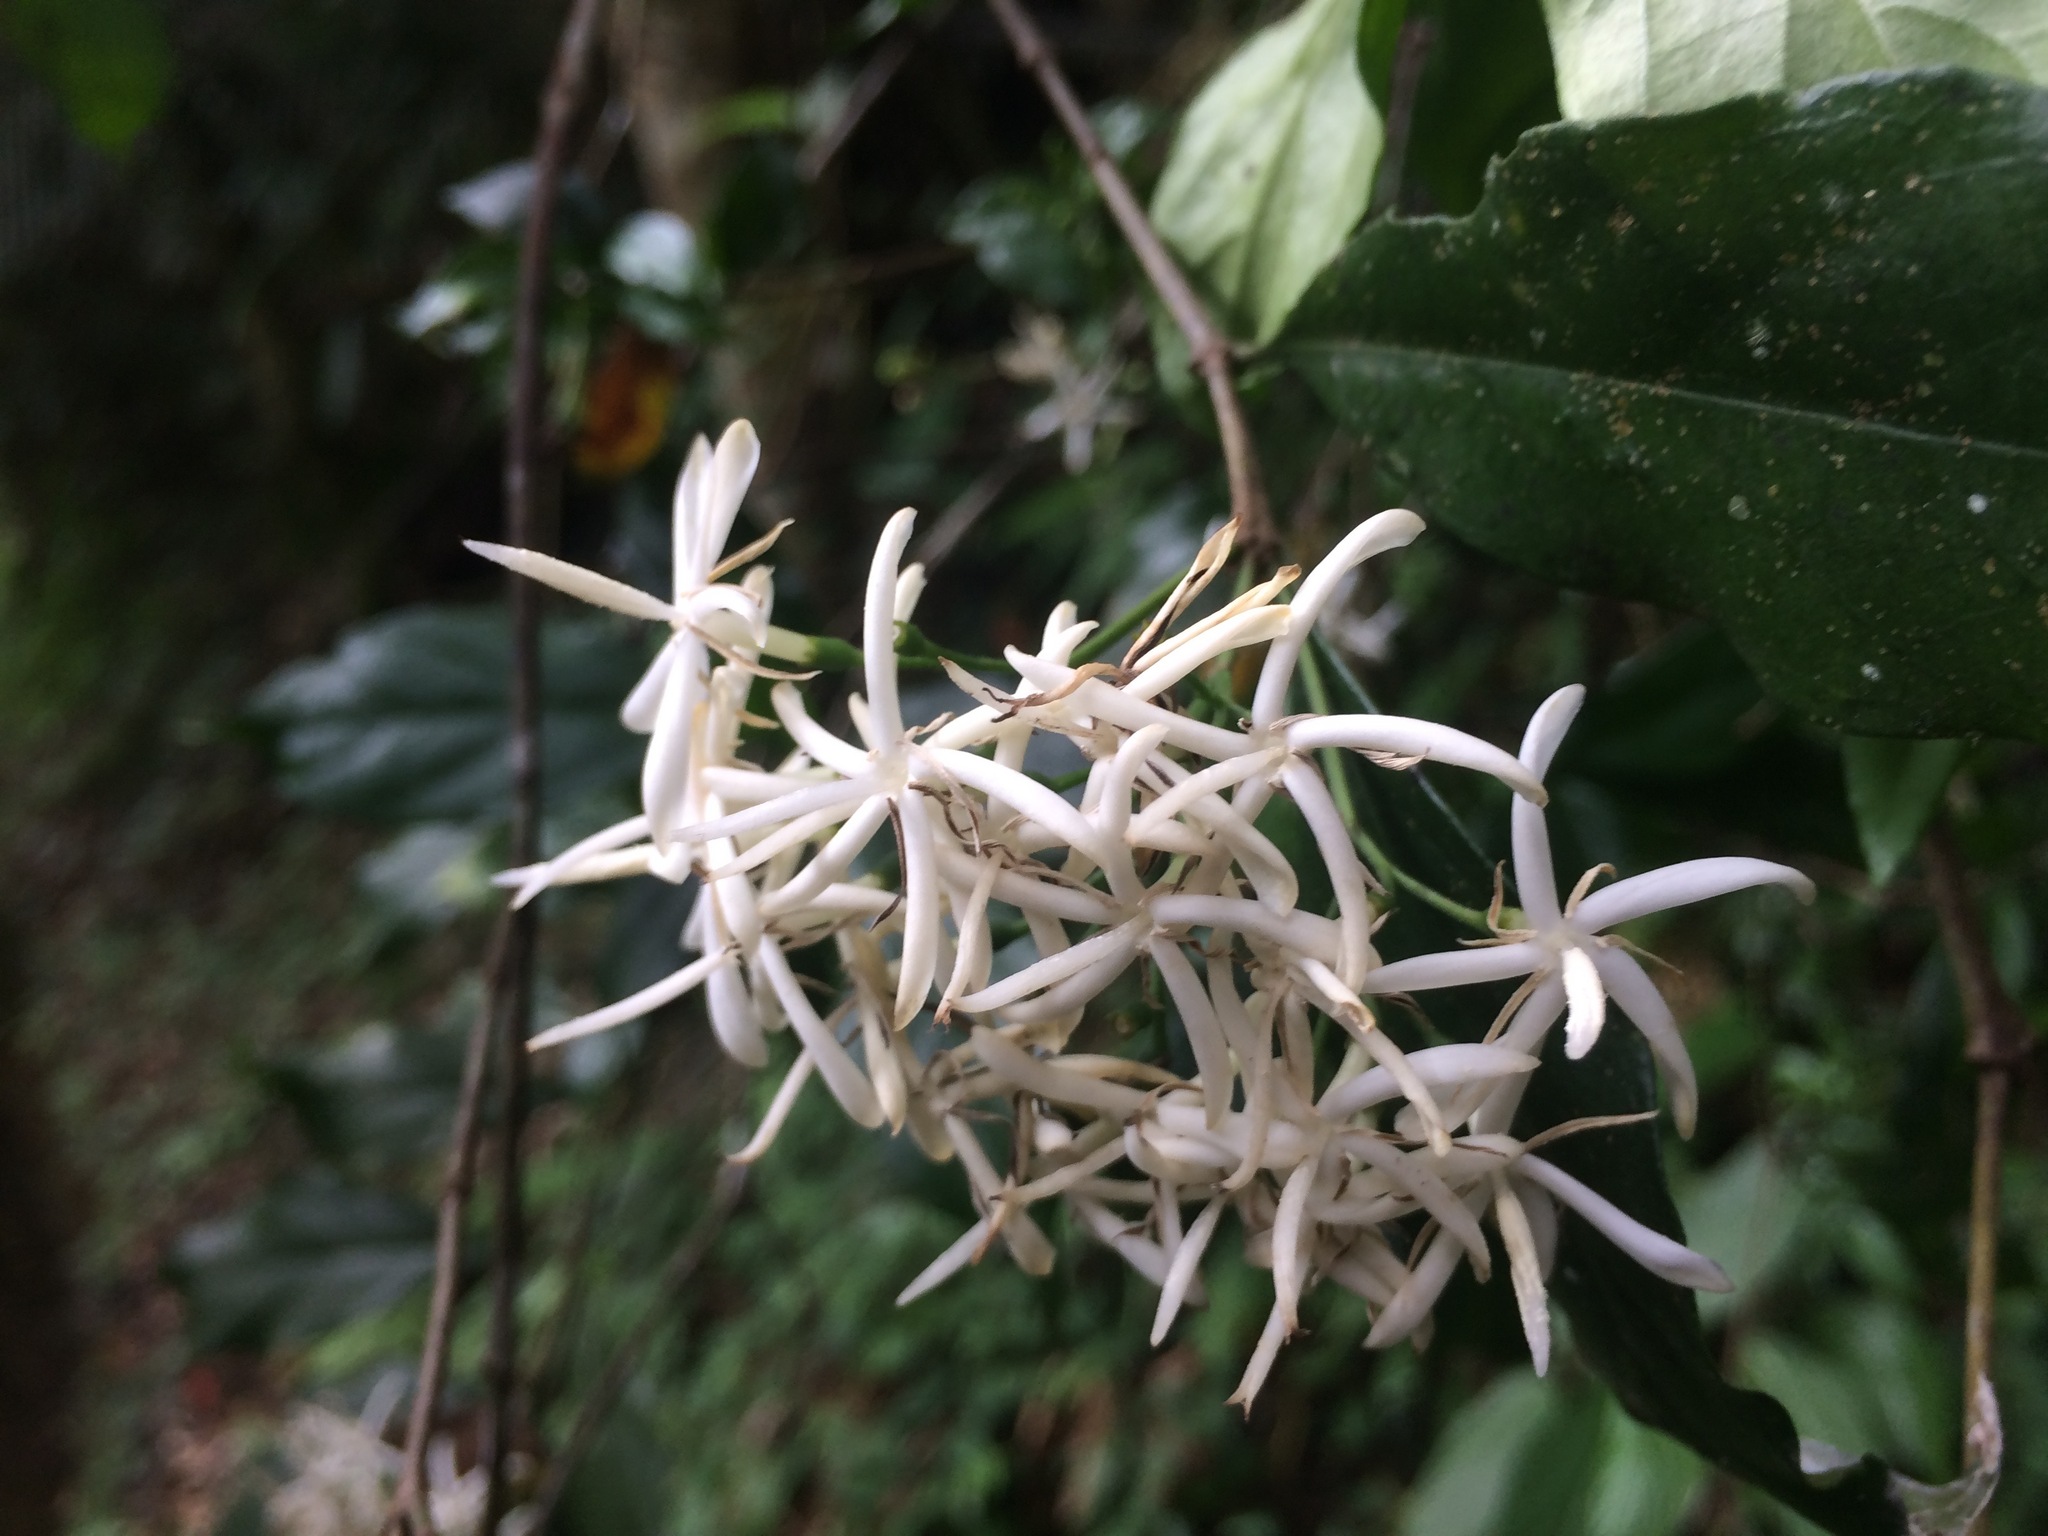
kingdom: Plantae
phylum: Tracheophyta
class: Magnoliopsida
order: Gentianales
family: Rubiaceae
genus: Tarenna
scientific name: Tarenna gracilipes
